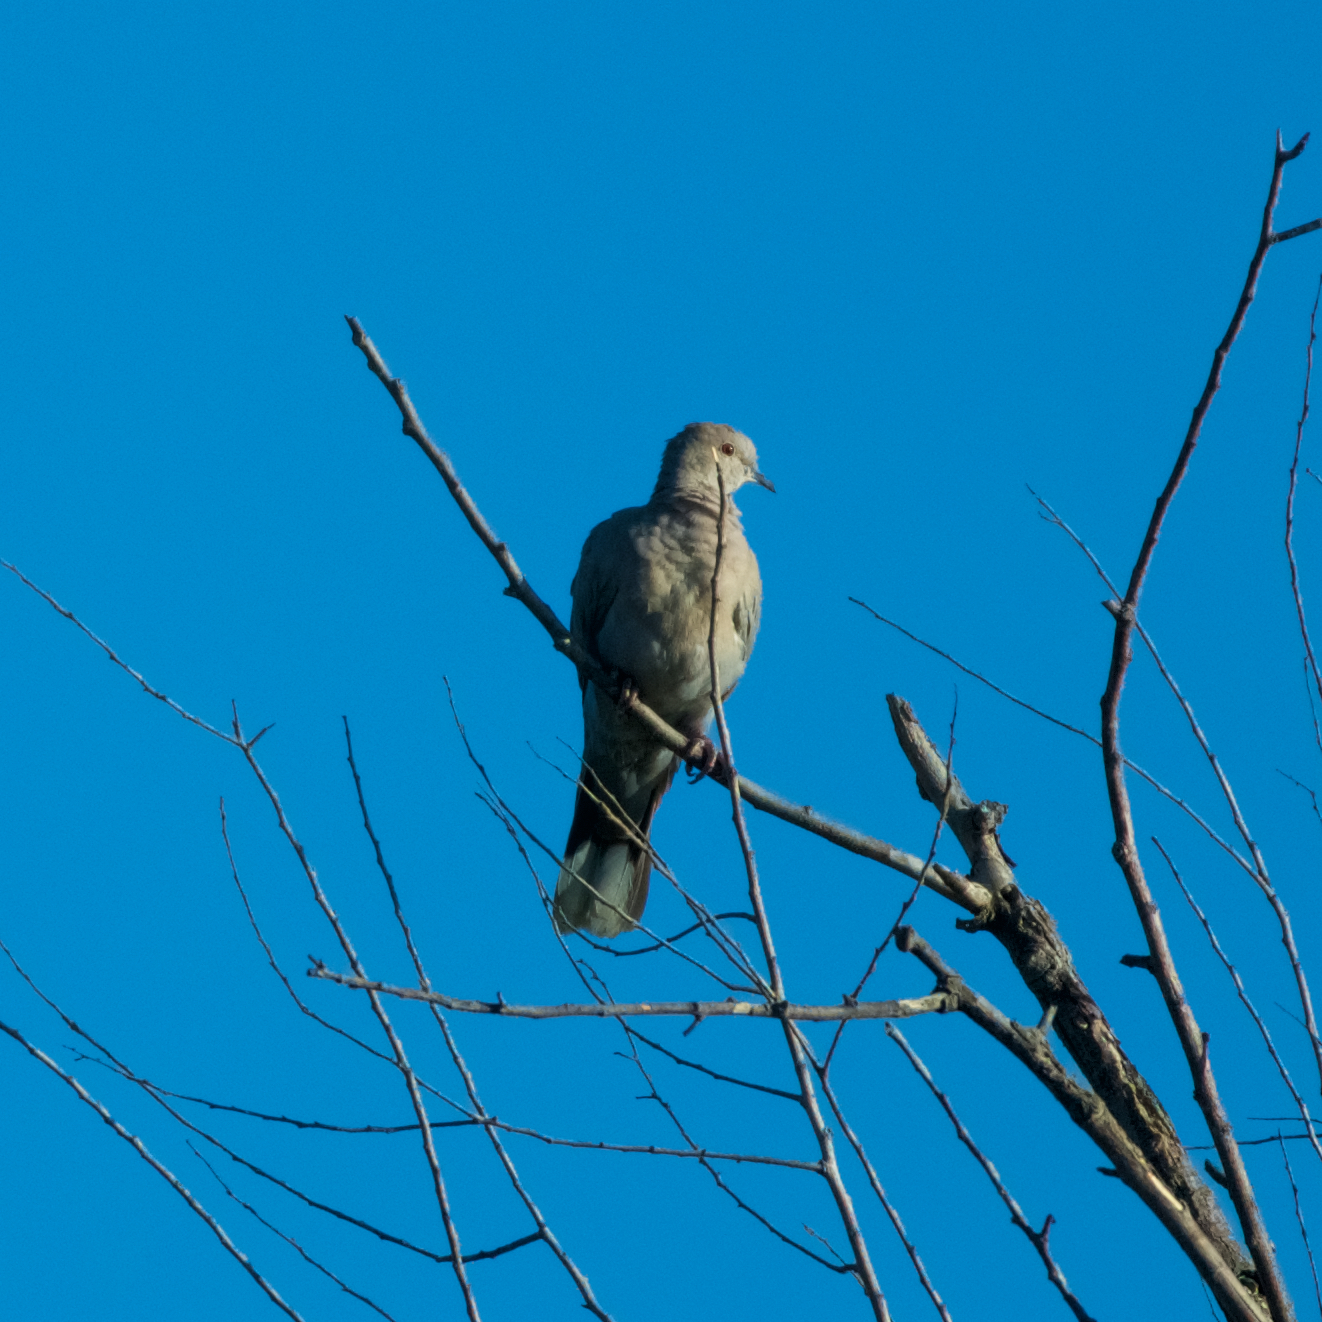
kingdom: Animalia
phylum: Chordata
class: Aves
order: Columbiformes
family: Columbidae
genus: Streptopelia
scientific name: Streptopelia decaocto
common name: Eurasian collared dove
